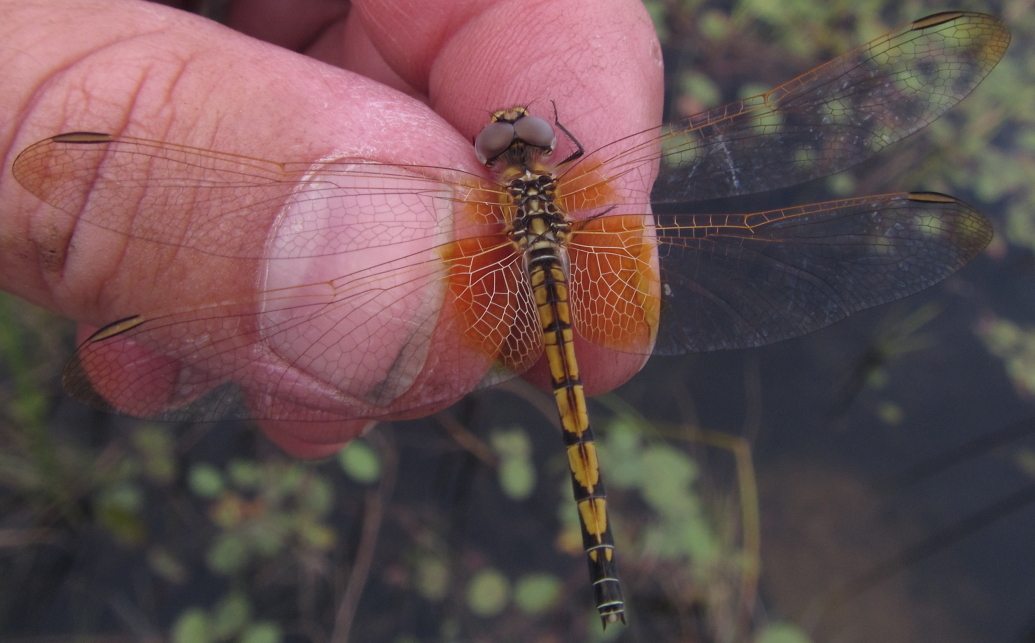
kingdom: Animalia
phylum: Arthropoda
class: Insecta
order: Odonata
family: Libellulidae
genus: Trithemis
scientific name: Trithemis monardi
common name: Monard's dropwing
